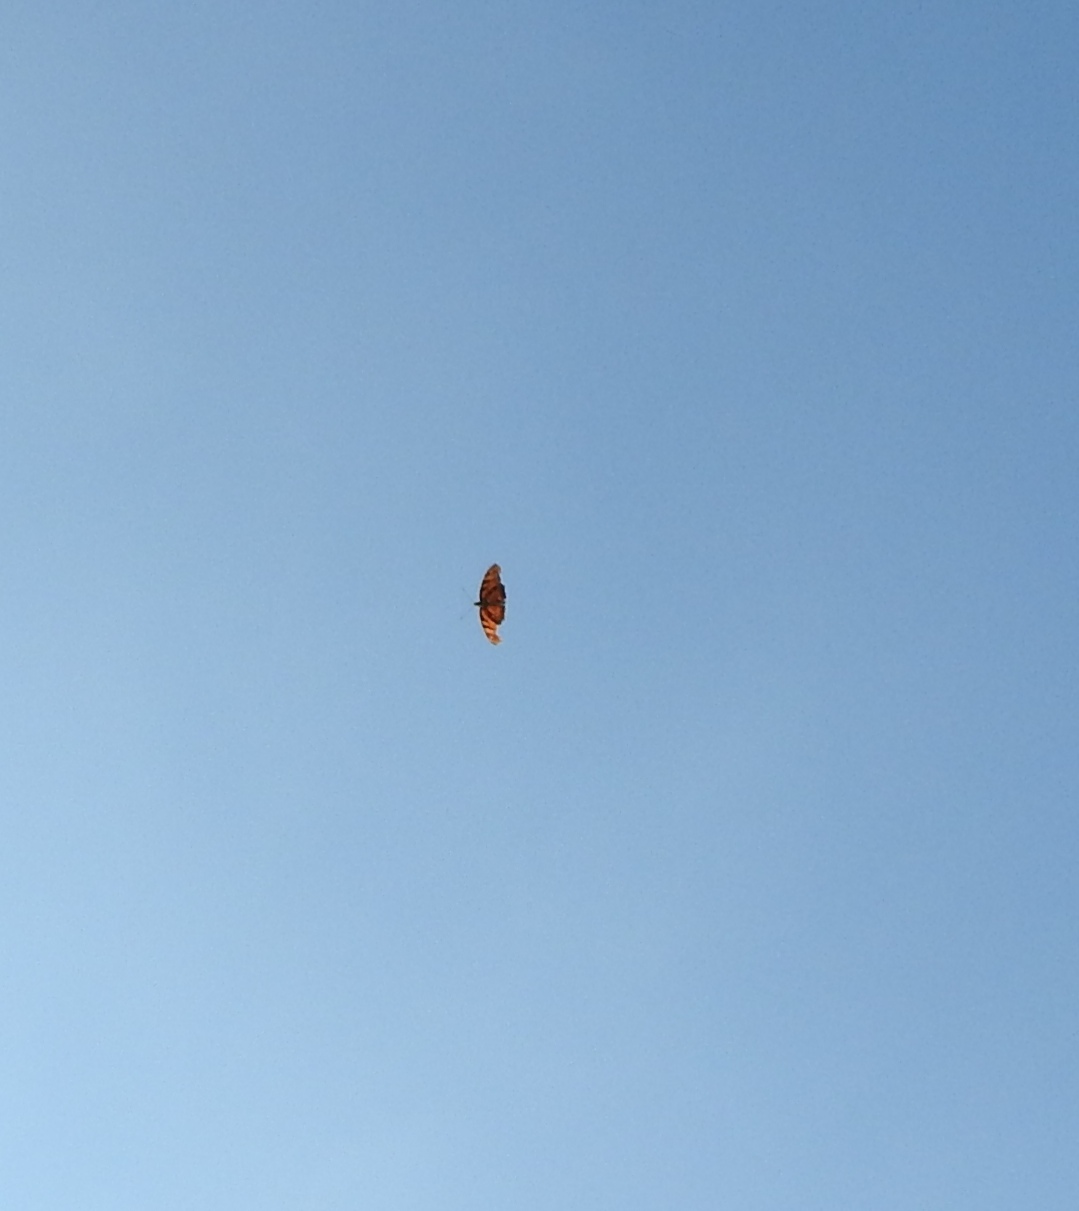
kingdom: Animalia
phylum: Arthropoda
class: Insecta
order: Lepidoptera
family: Nymphalidae
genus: Dione
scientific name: Dione juno
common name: Juno silverspot
